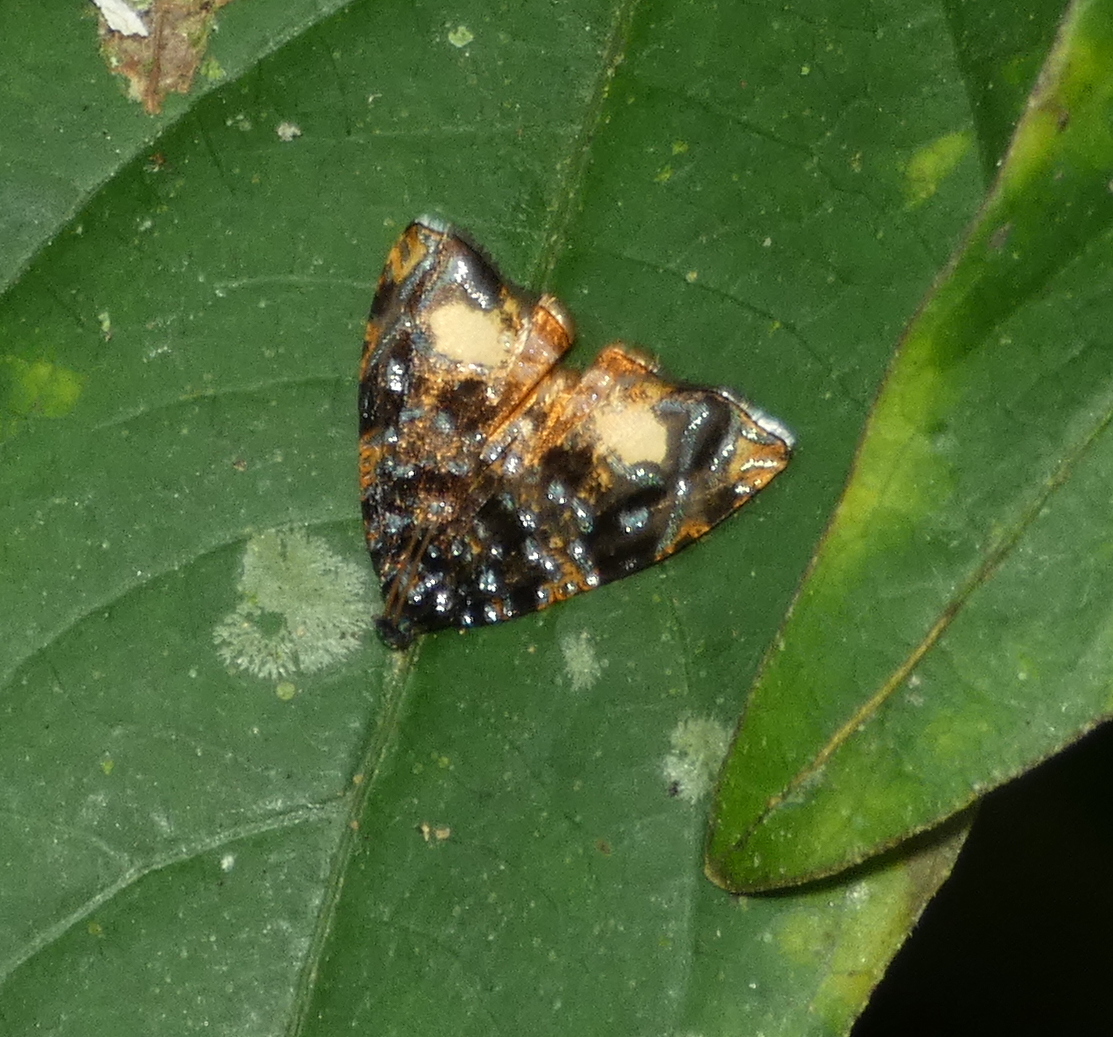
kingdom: Animalia
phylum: Arthropoda
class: Insecta
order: Lepidoptera
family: Tortricidae
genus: Mictopsichia
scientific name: Mictopsichia hubneriana
